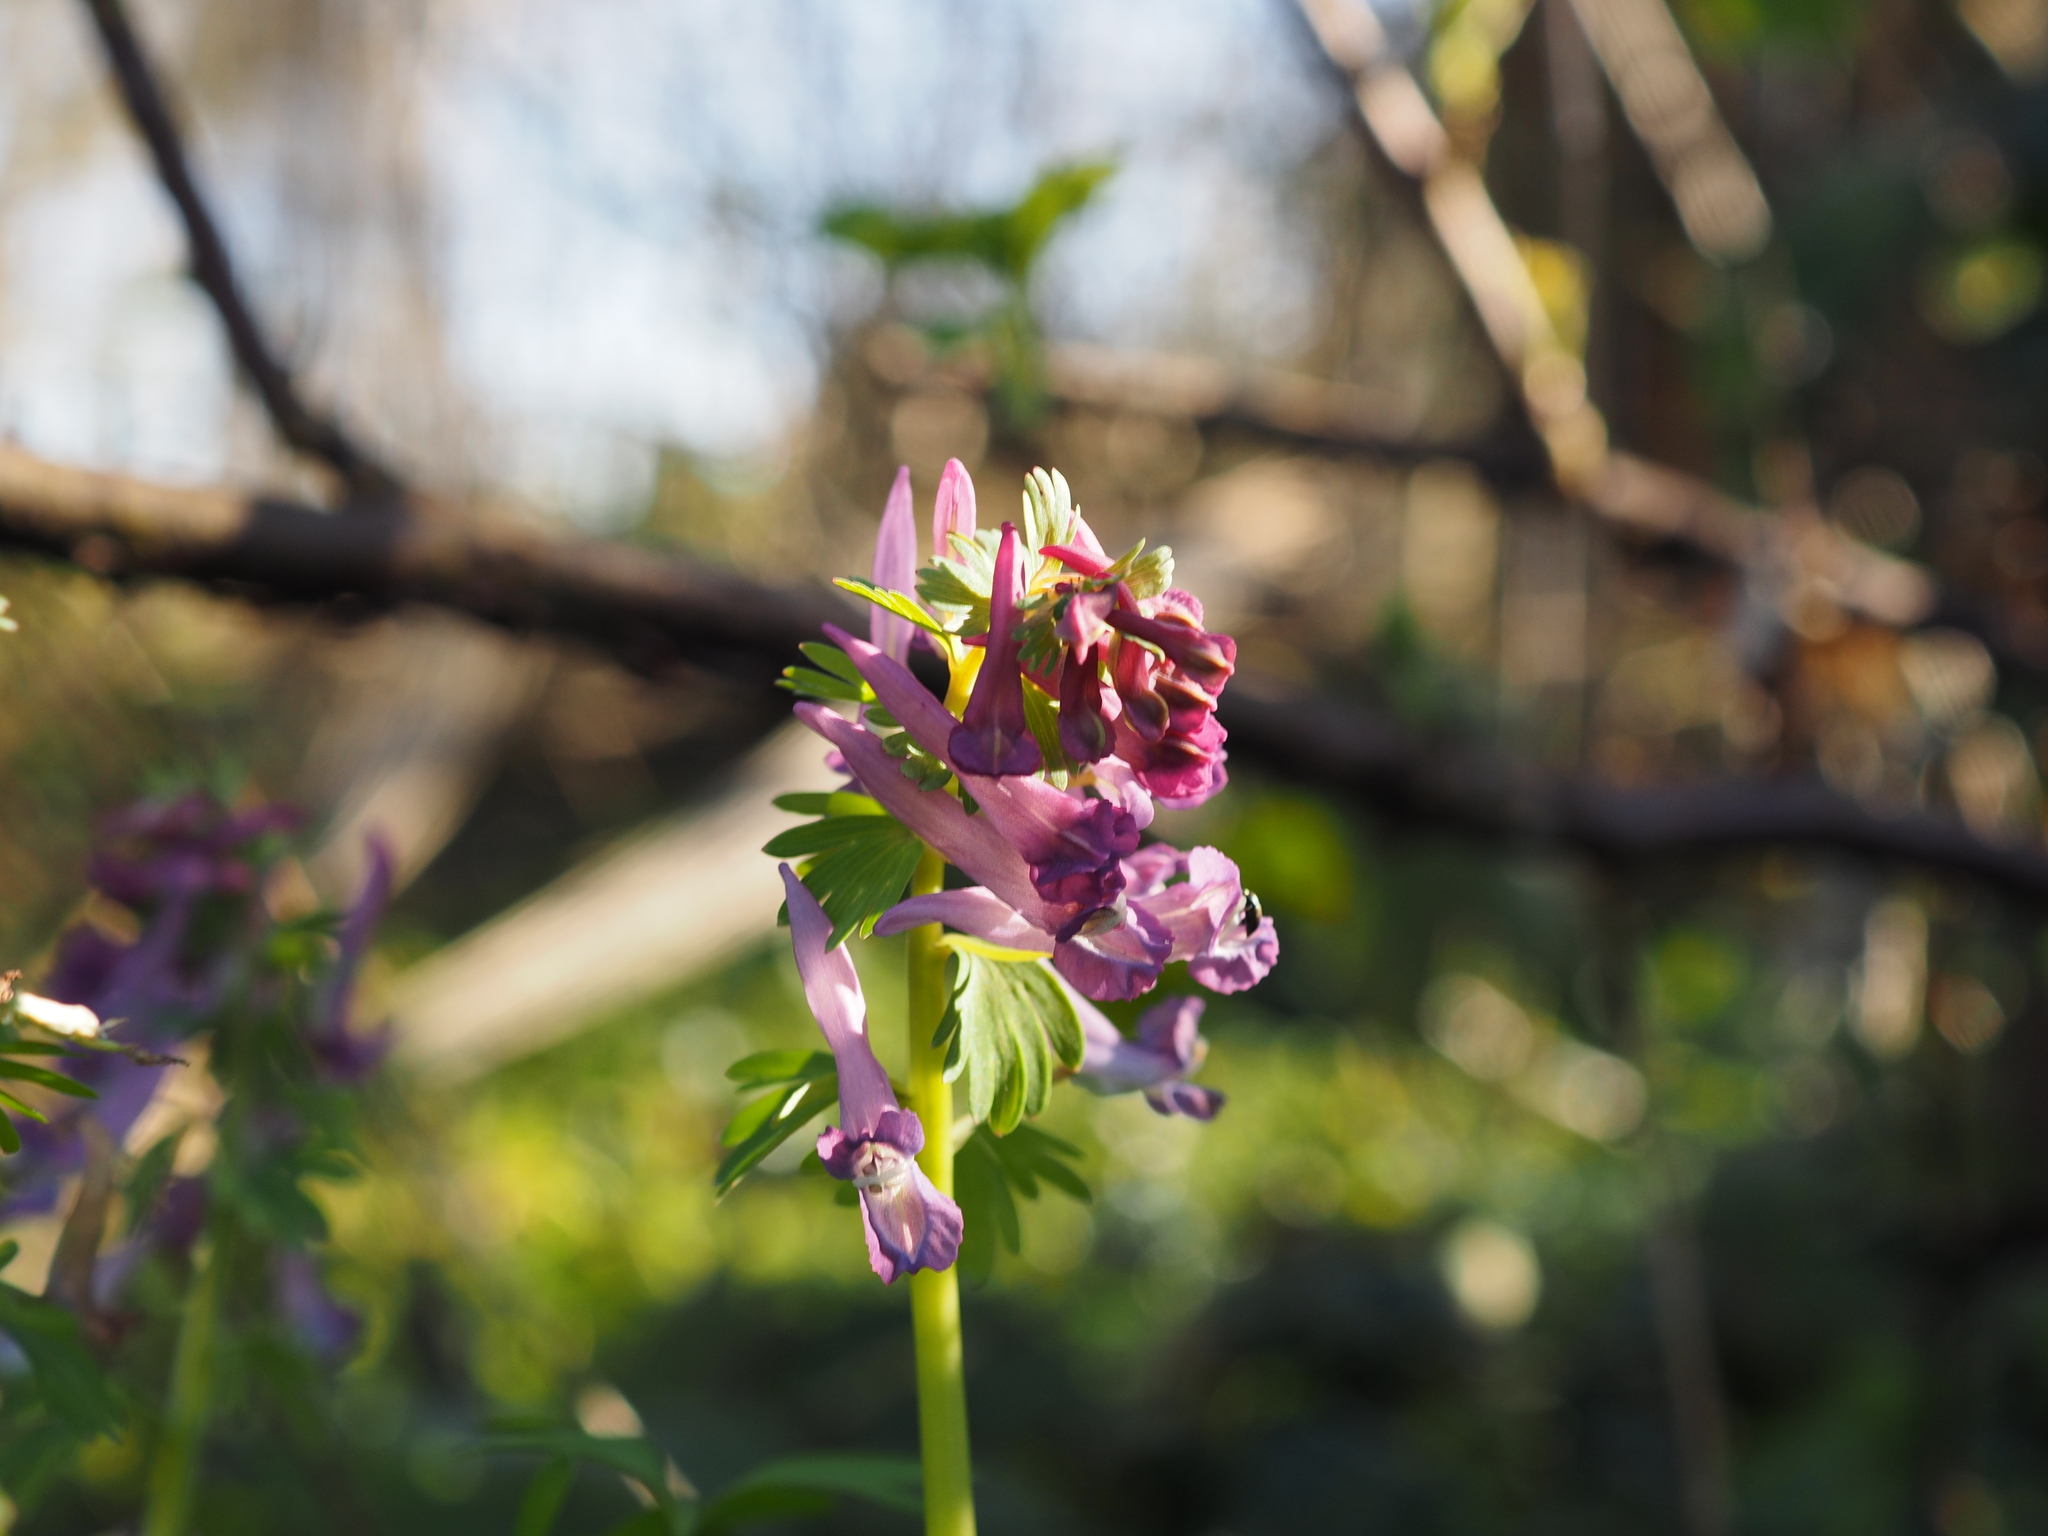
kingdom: Plantae
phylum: Tracheophyta
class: Magnoliopsida
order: Ranunculales
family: Papaveraceae
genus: Corydalis
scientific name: Corydalis solida
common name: Bird-in-a-bush
